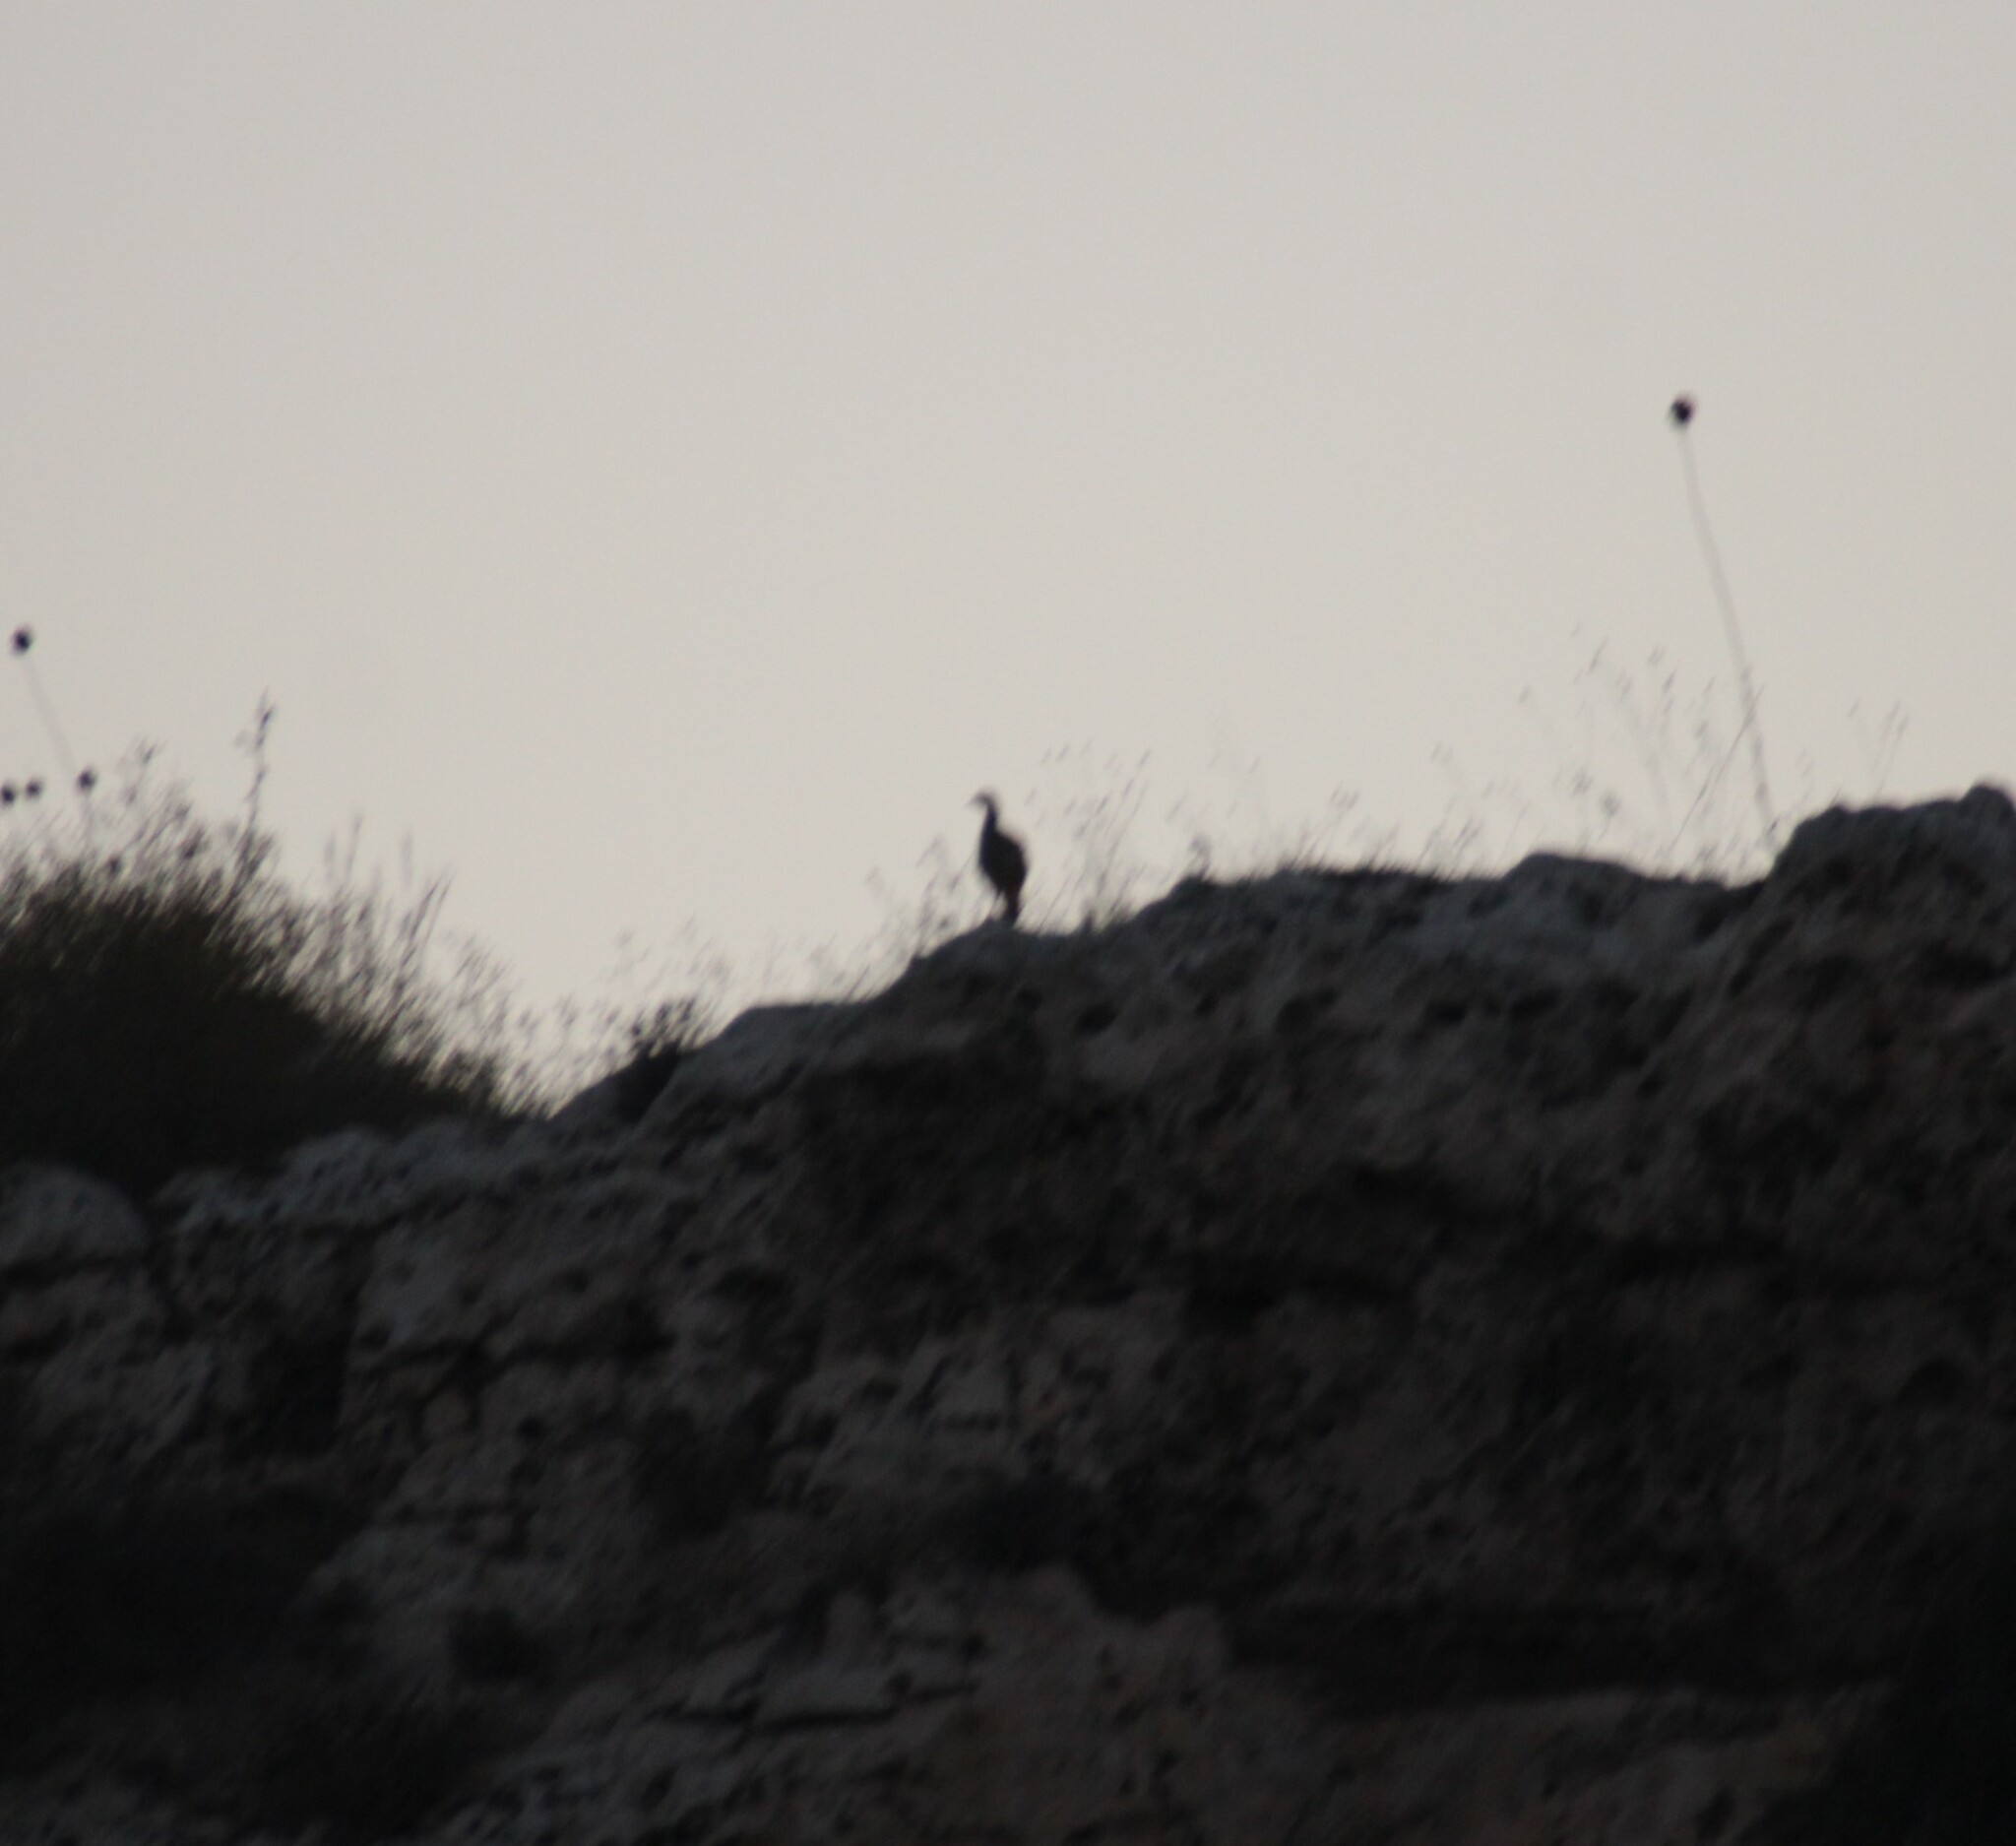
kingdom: Animalia
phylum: Chordata
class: Aves
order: Galliformes
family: Phasianidae
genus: Alectoris
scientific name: Alectoris chukar
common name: Chukar
